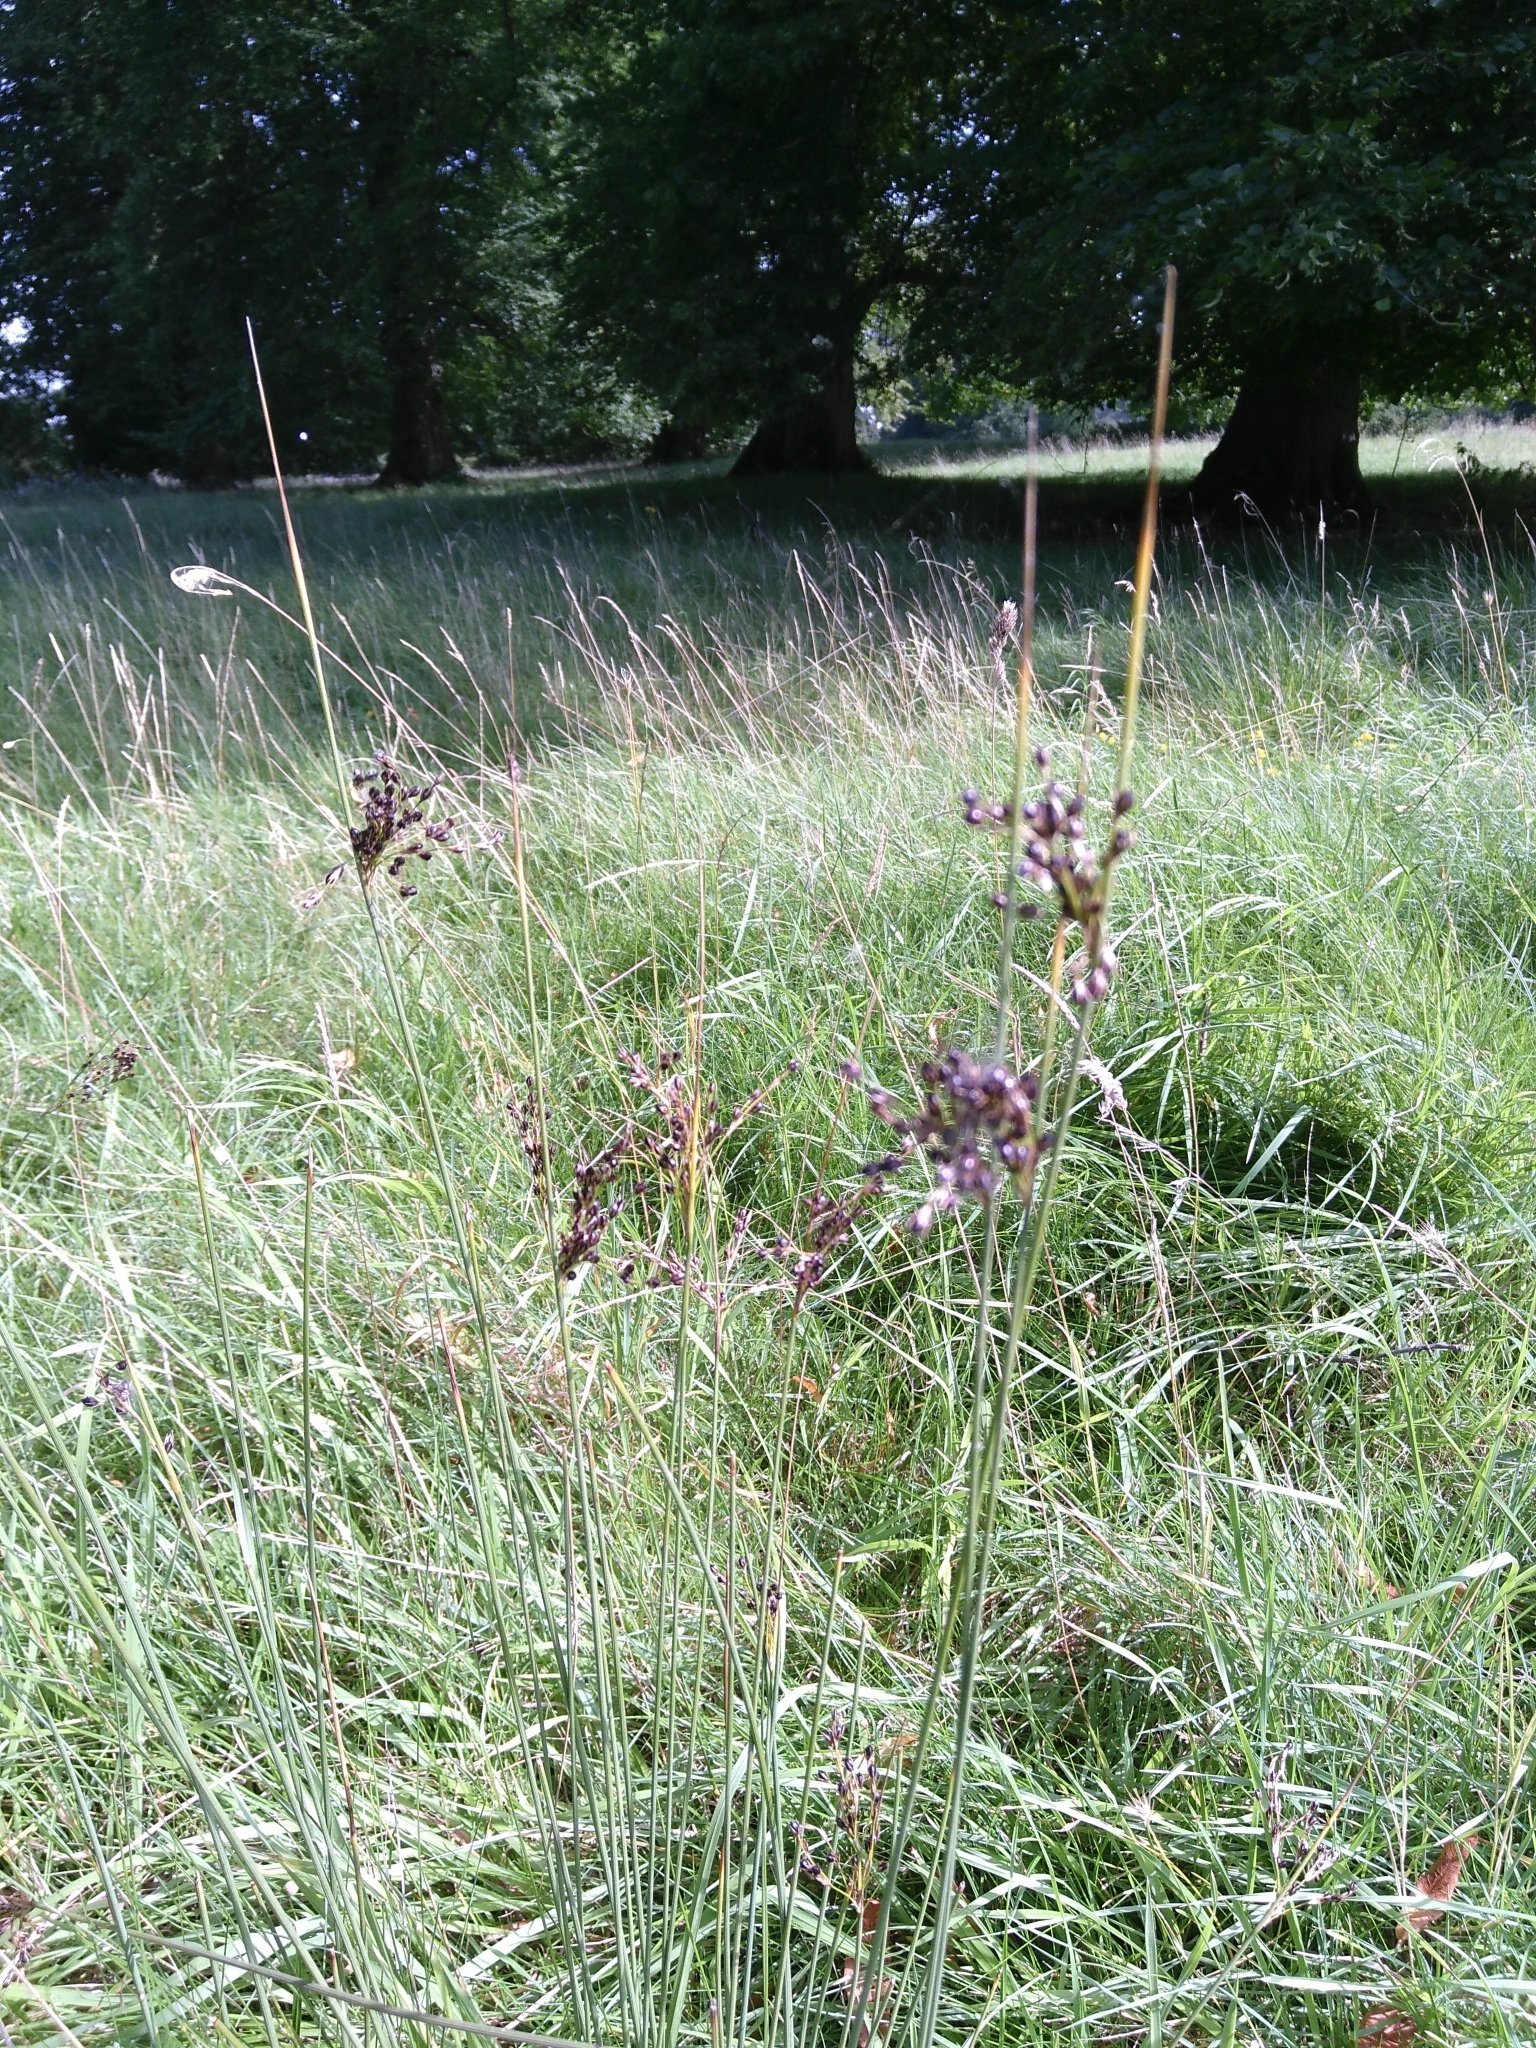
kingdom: Plantae
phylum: Tracheophyta
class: Liliopsida
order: Poales
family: Juncaceae
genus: Juncus
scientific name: Juncus inflexus
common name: Hard rush
